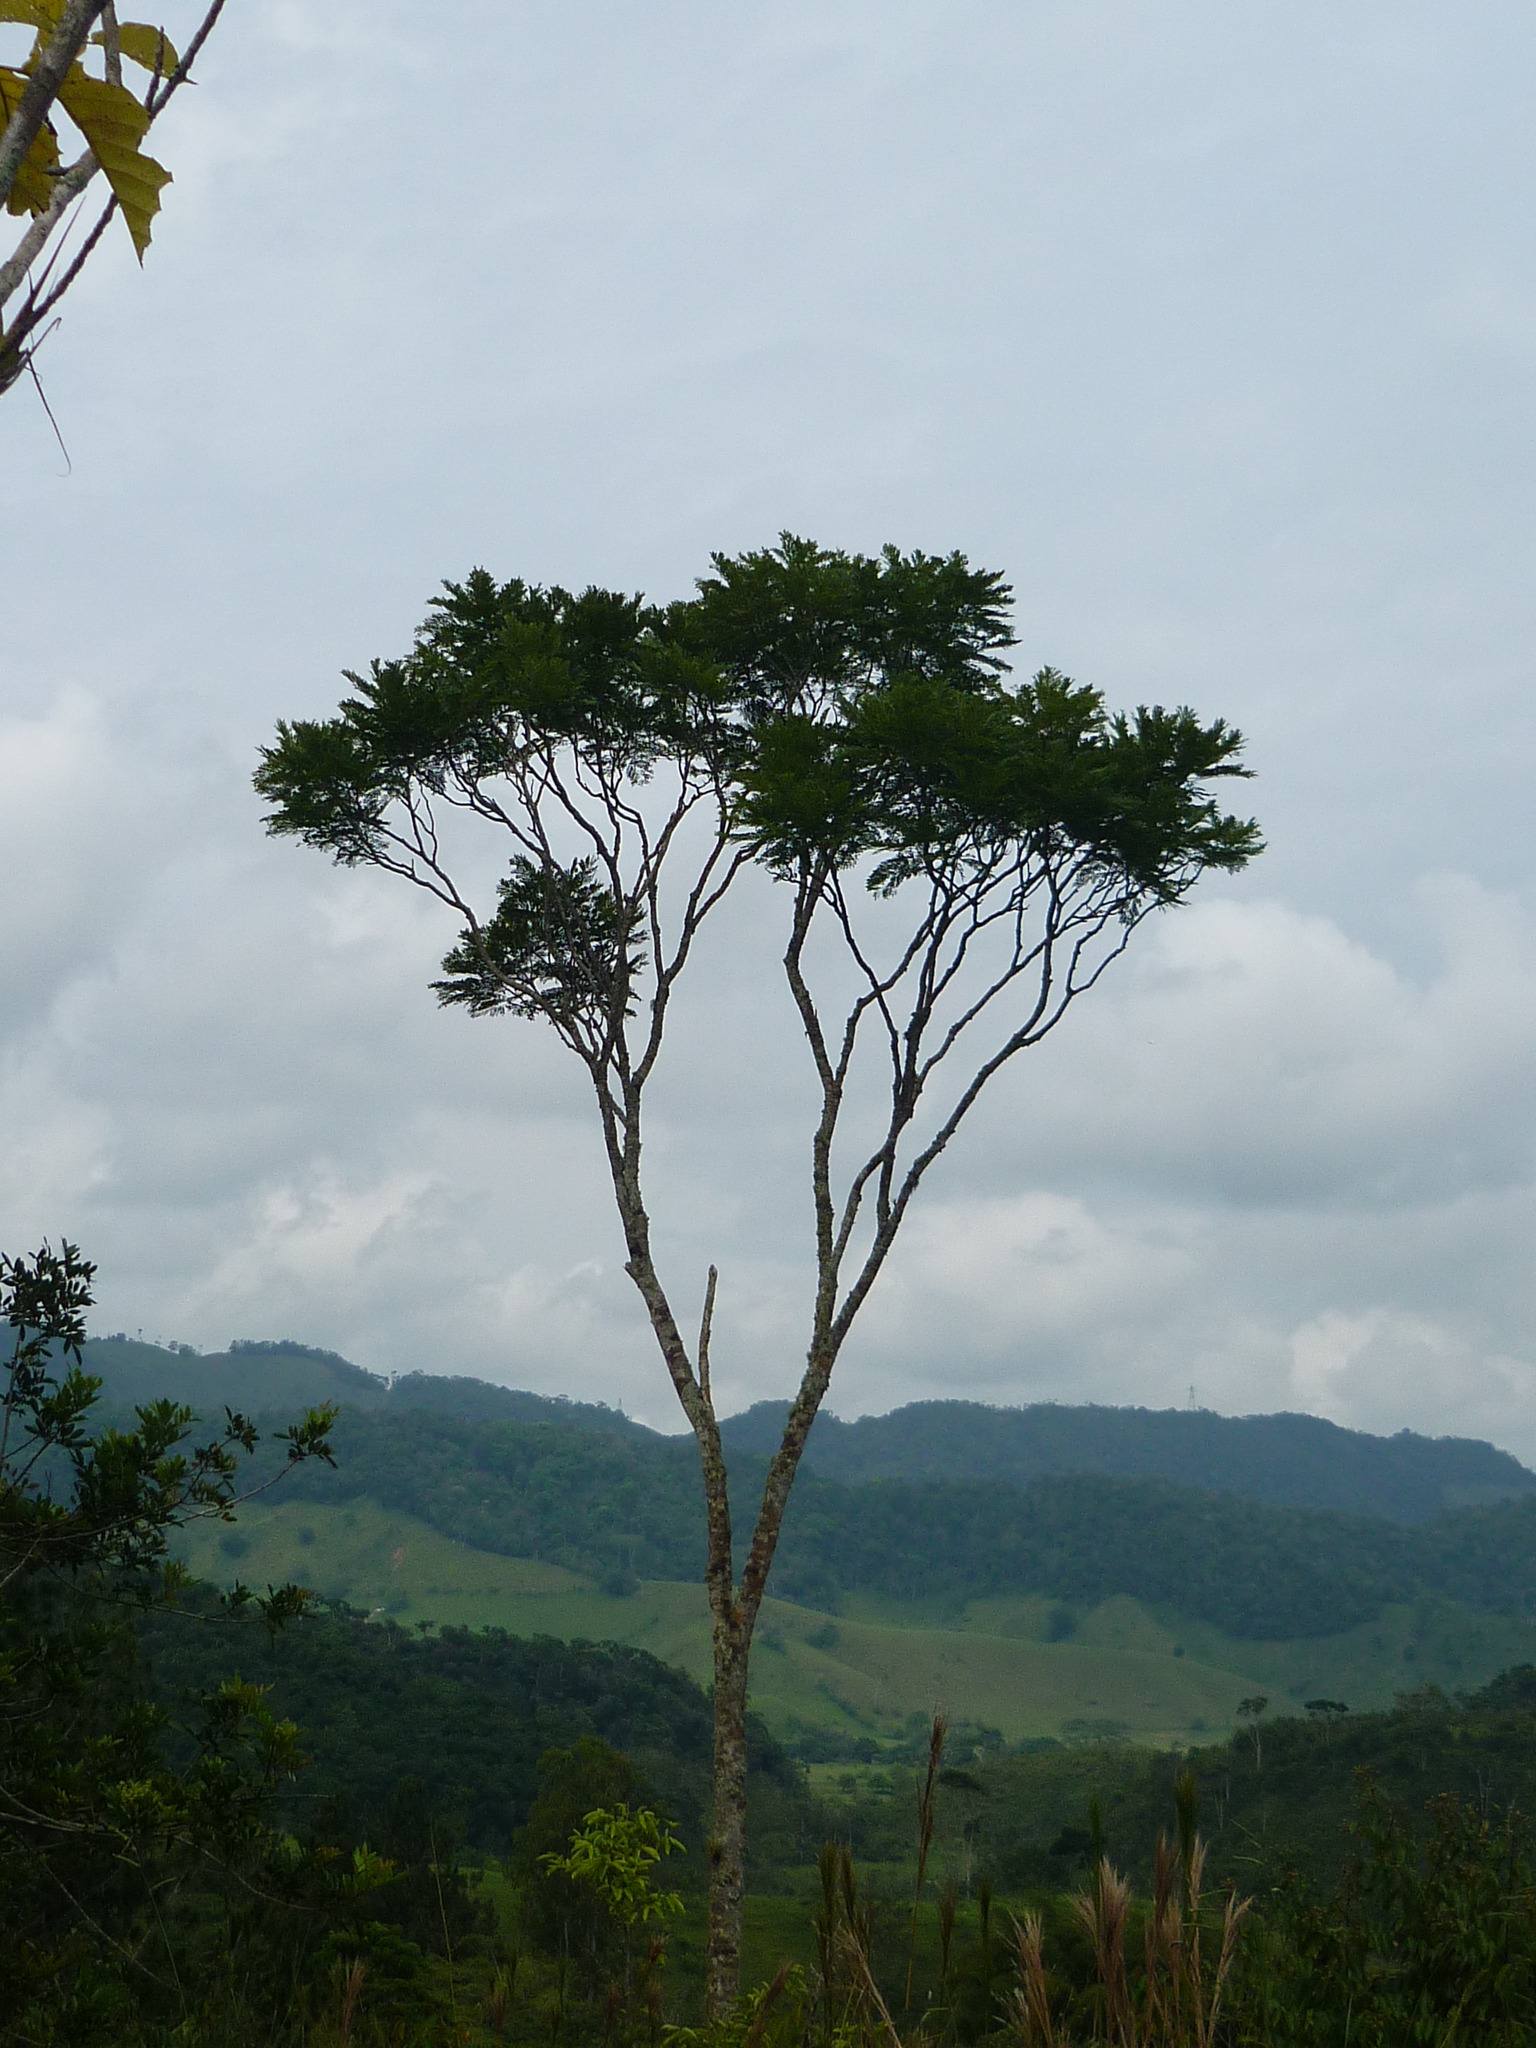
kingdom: Plantae
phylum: Tracheophyta
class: Magnoliopsida
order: Lamiales
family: Bignoniaceae
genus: Jacaranda
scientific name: Jacaranda copaia
